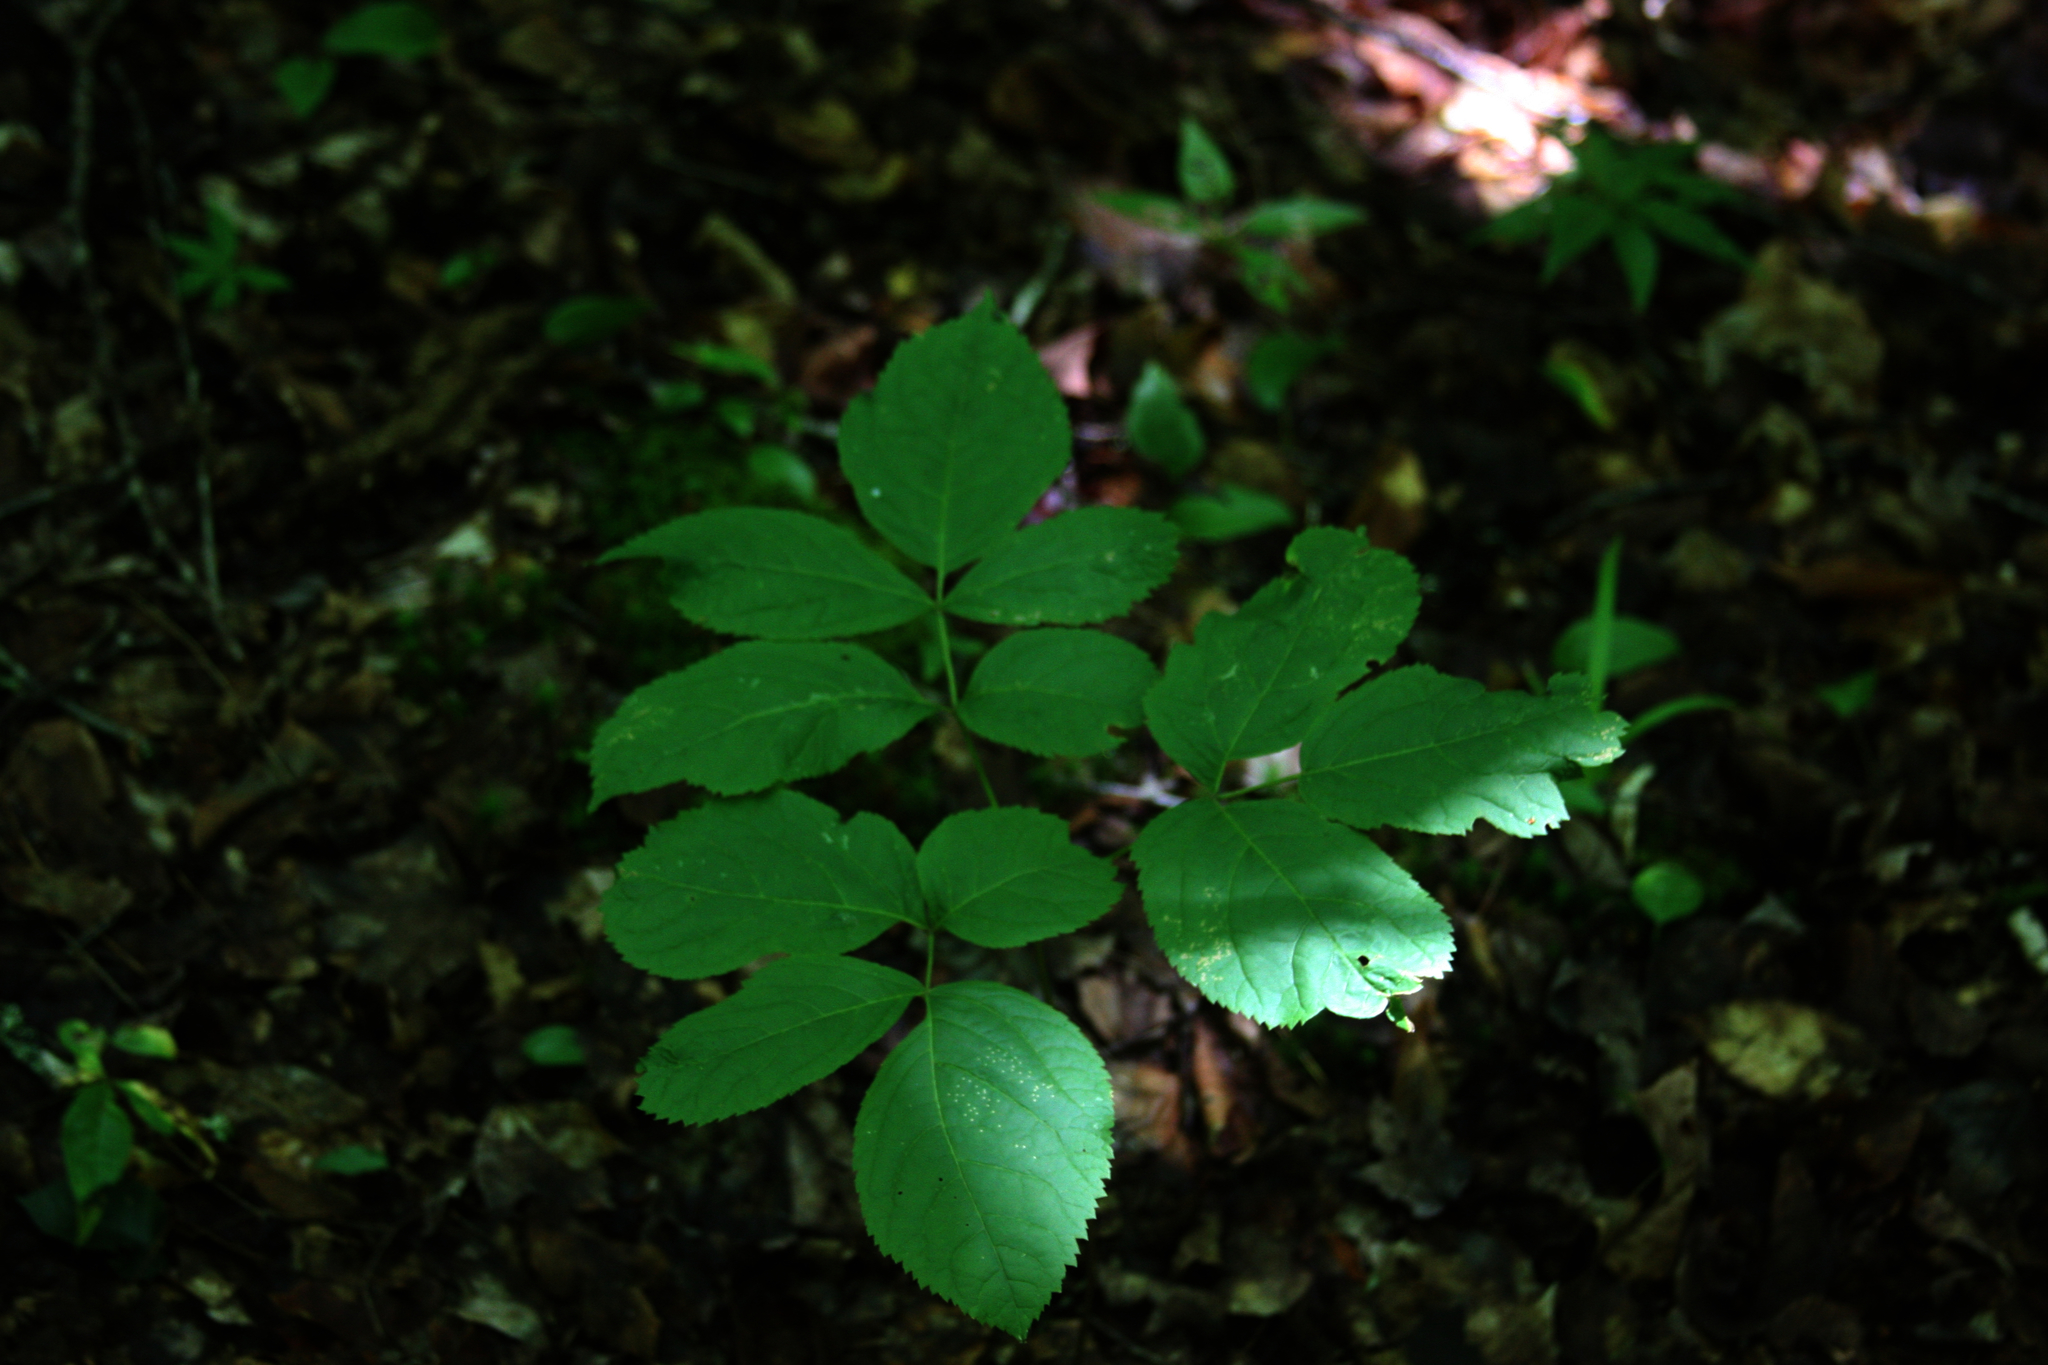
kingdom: Plantae
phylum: Tracheophyta
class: Magnoliopsida
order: Apiales
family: Araliaceae
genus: Aralia
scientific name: Aralia nudicaulis
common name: Wild sarsaparilla
